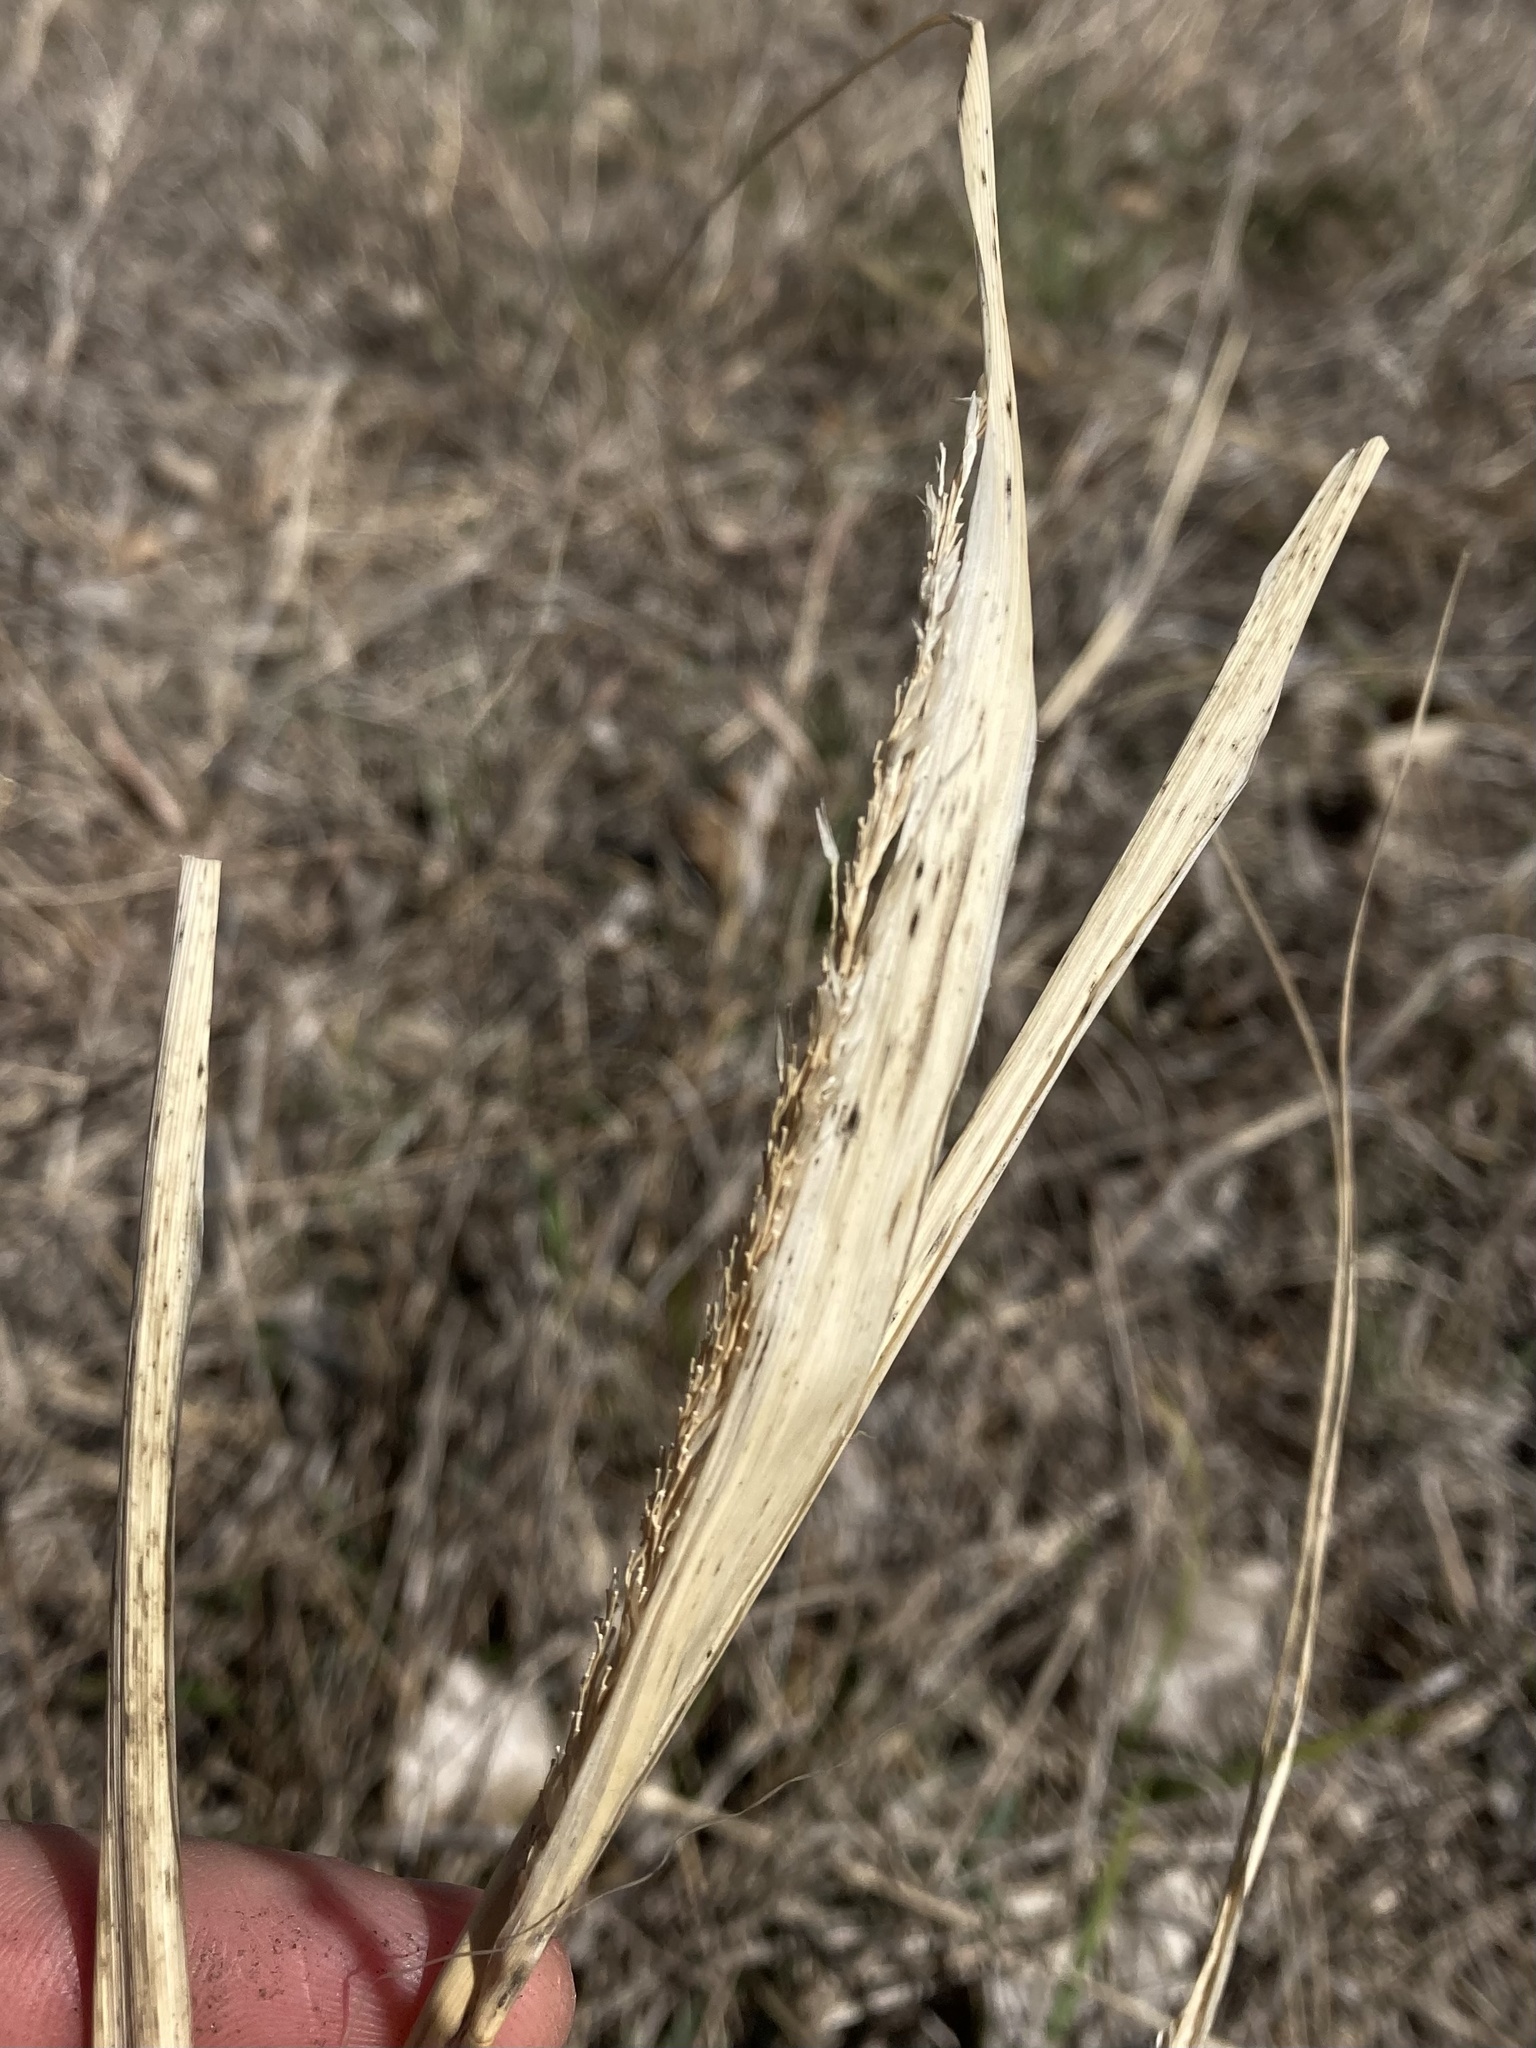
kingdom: Plantae
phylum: Tracheophyta
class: Liliopsida
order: Poales
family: Poaceae
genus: Sporobolus
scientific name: Sporobolus compositus
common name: Rough dropseed
